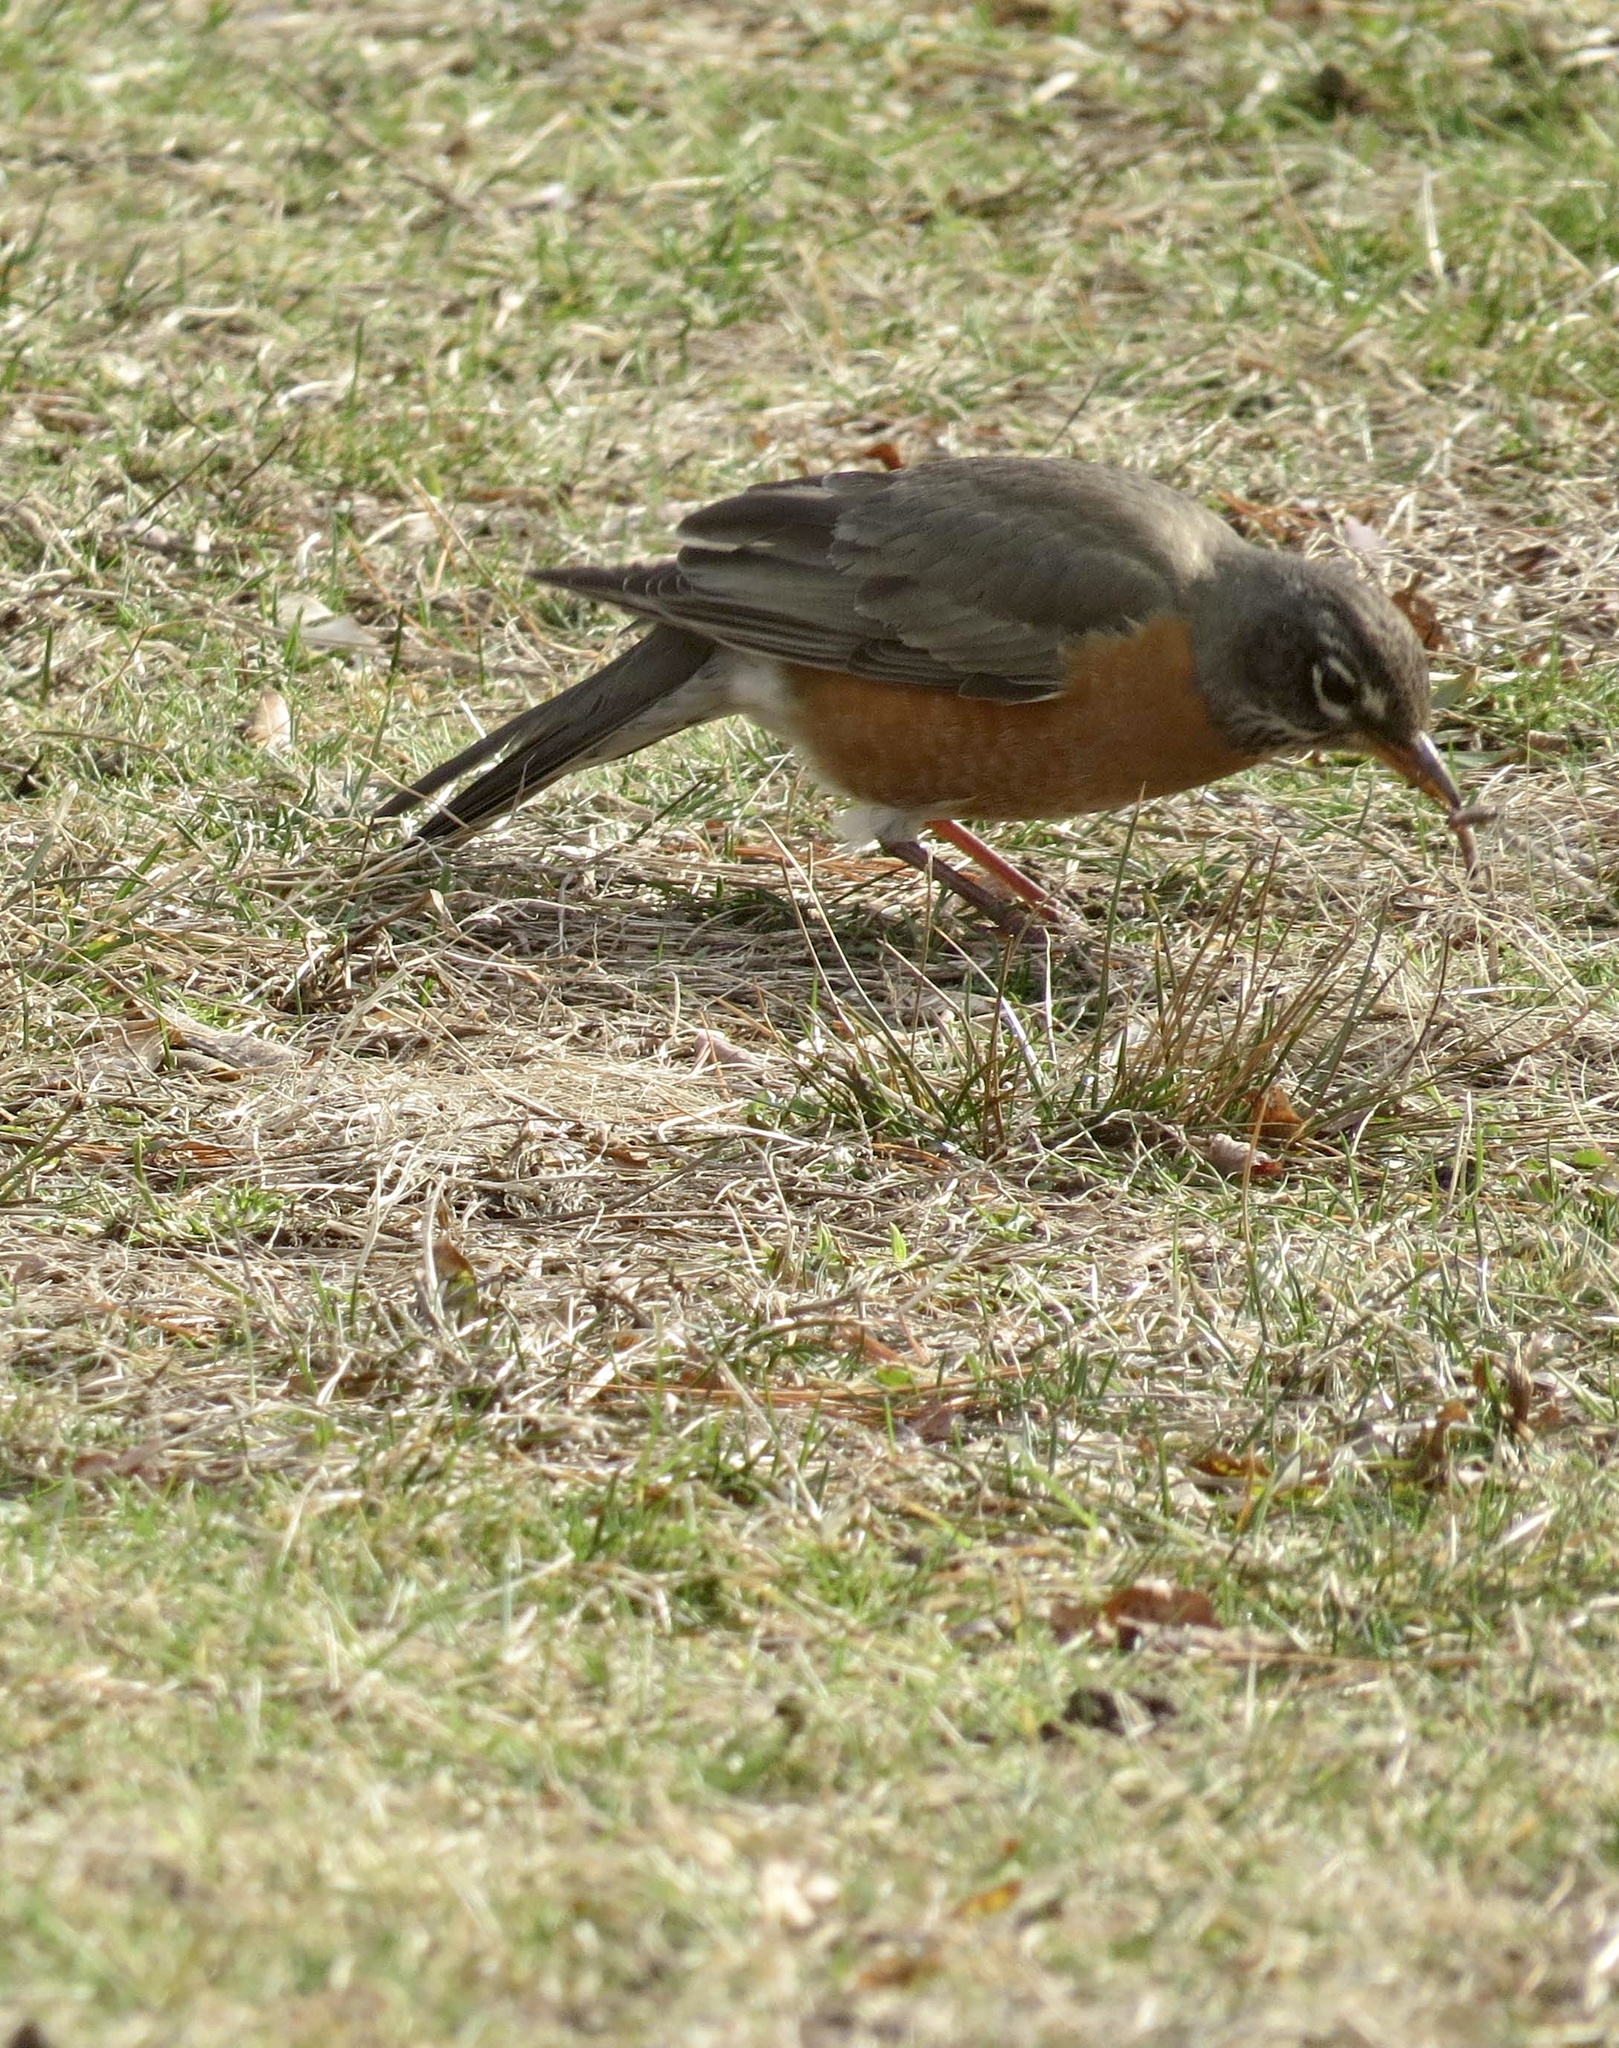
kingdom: Animalia
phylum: Chordata
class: Aves
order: Passeriformes
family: Turdidae
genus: Turdus
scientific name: Turdus migratorius
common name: American robin
